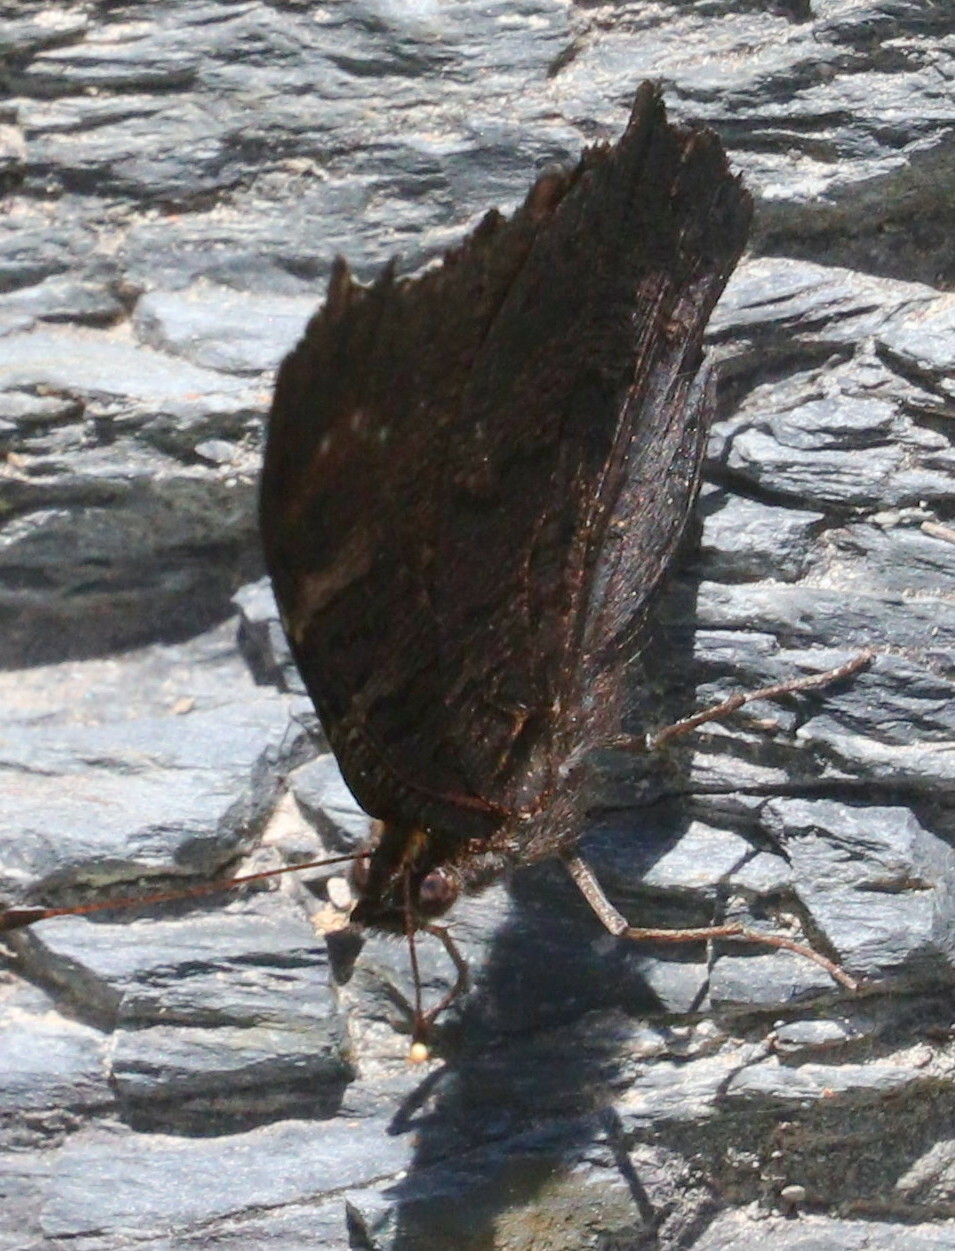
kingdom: Animalia
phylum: Arthropoda
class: Insecta
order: Lepidoptera
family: Nymphalidae
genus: Aglais
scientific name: Aglais io
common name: Peacock
